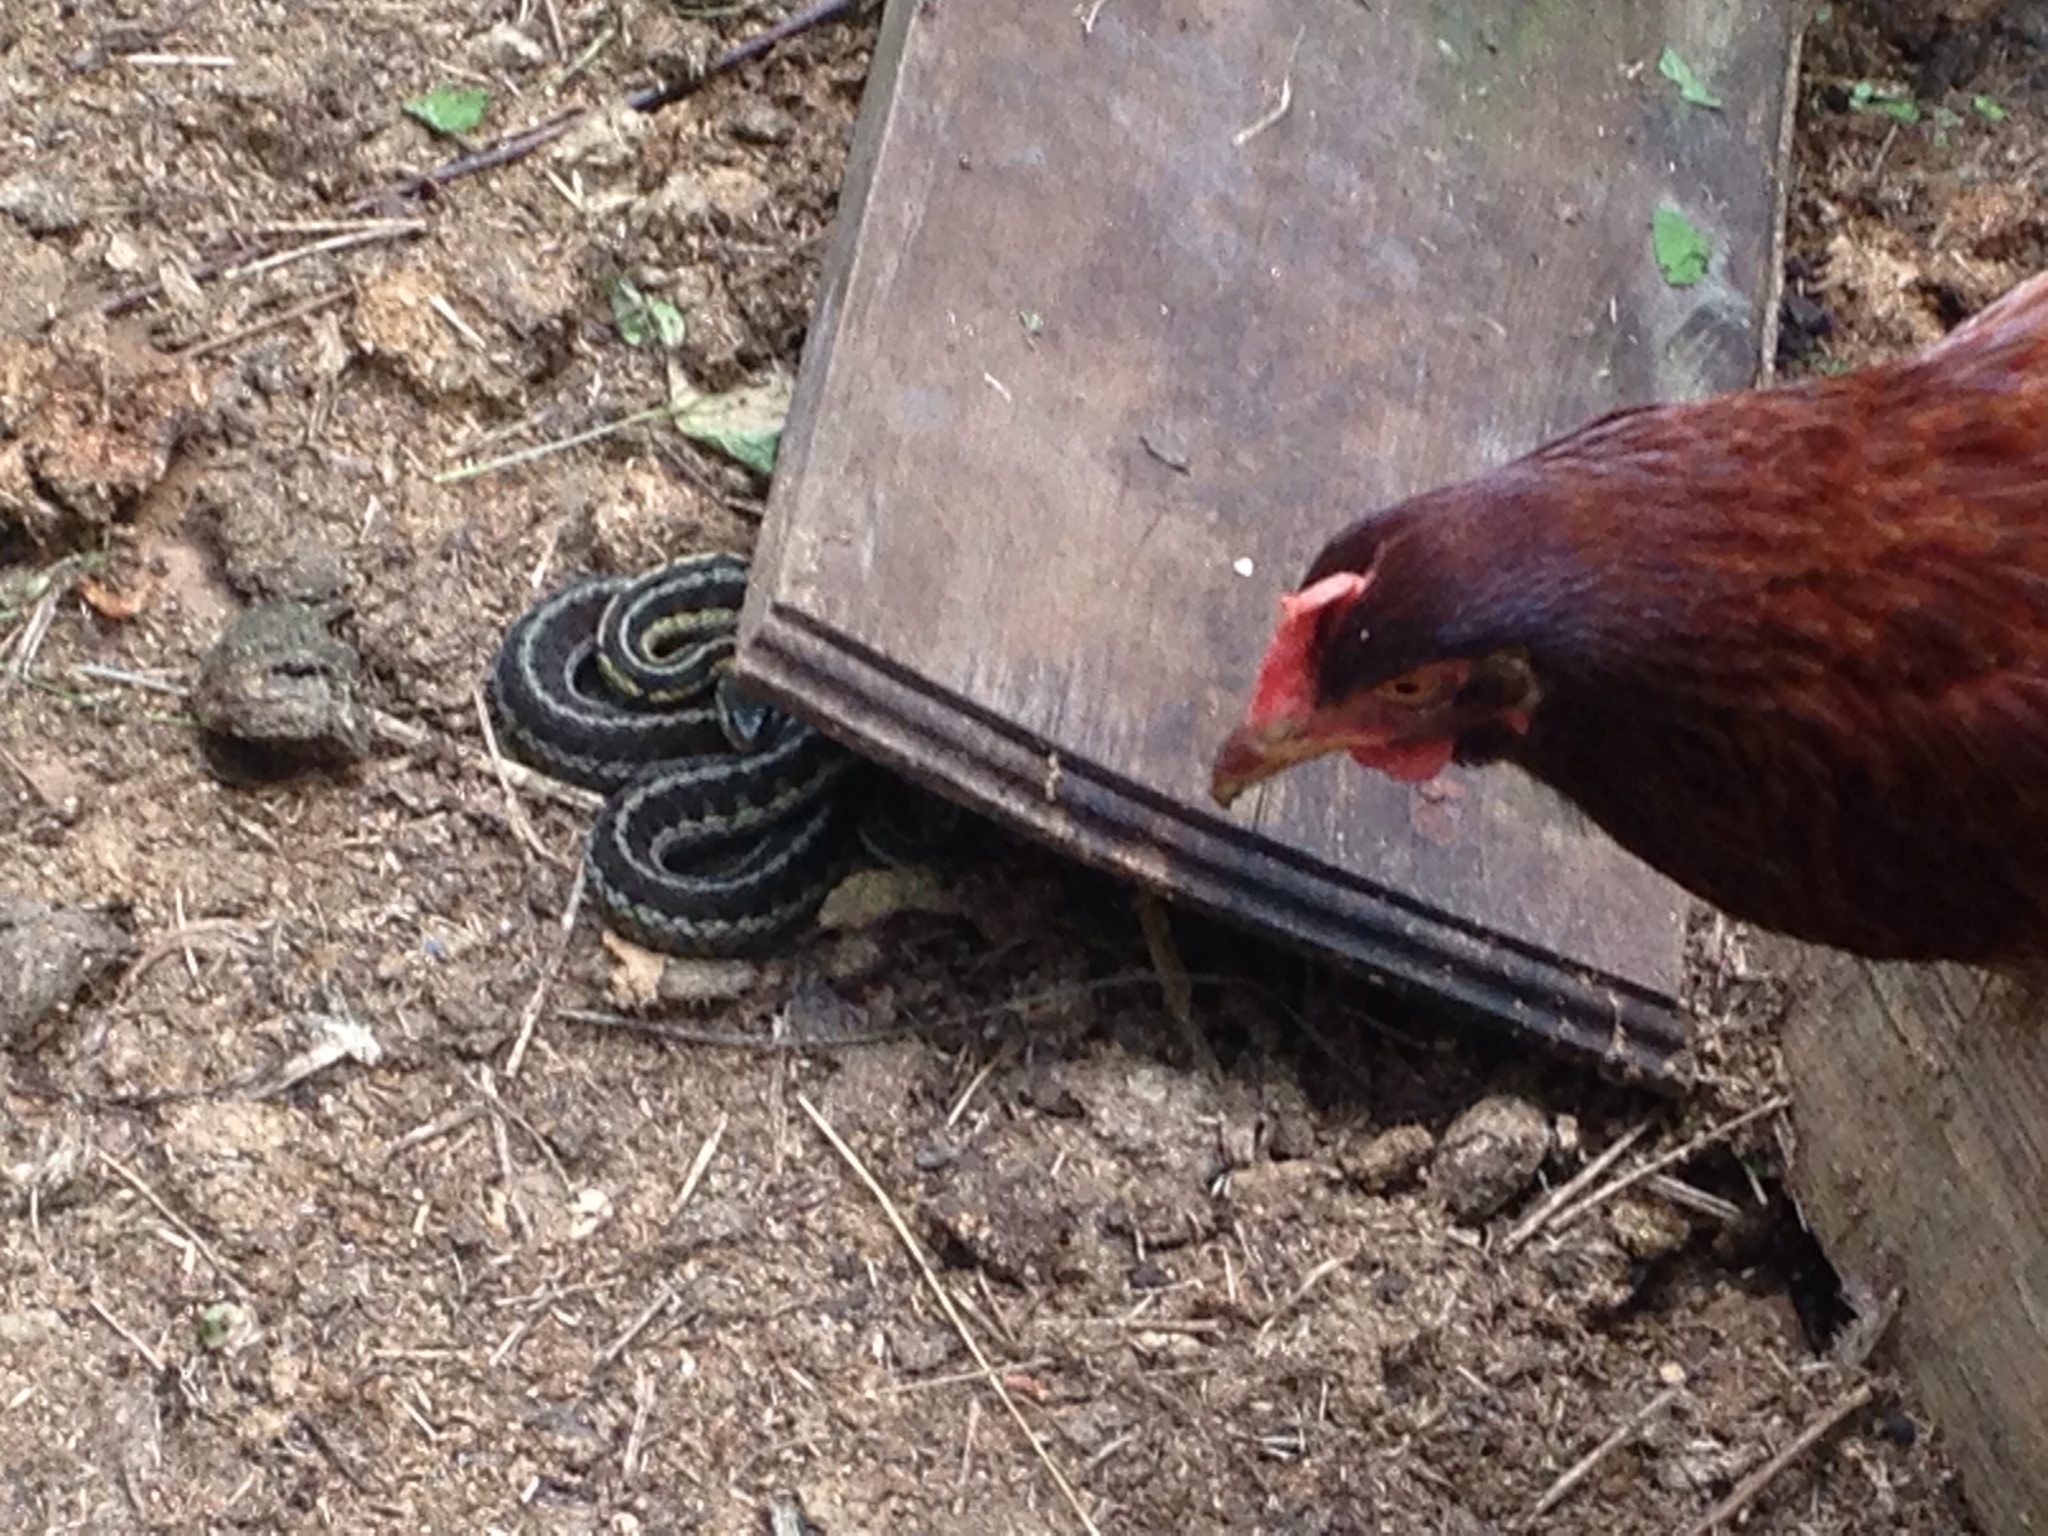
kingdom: Animalia
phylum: Chordata
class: Squamata
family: Colubridae
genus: Thamnophis
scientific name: Thamnophis sirtalis
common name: Common garter snake
